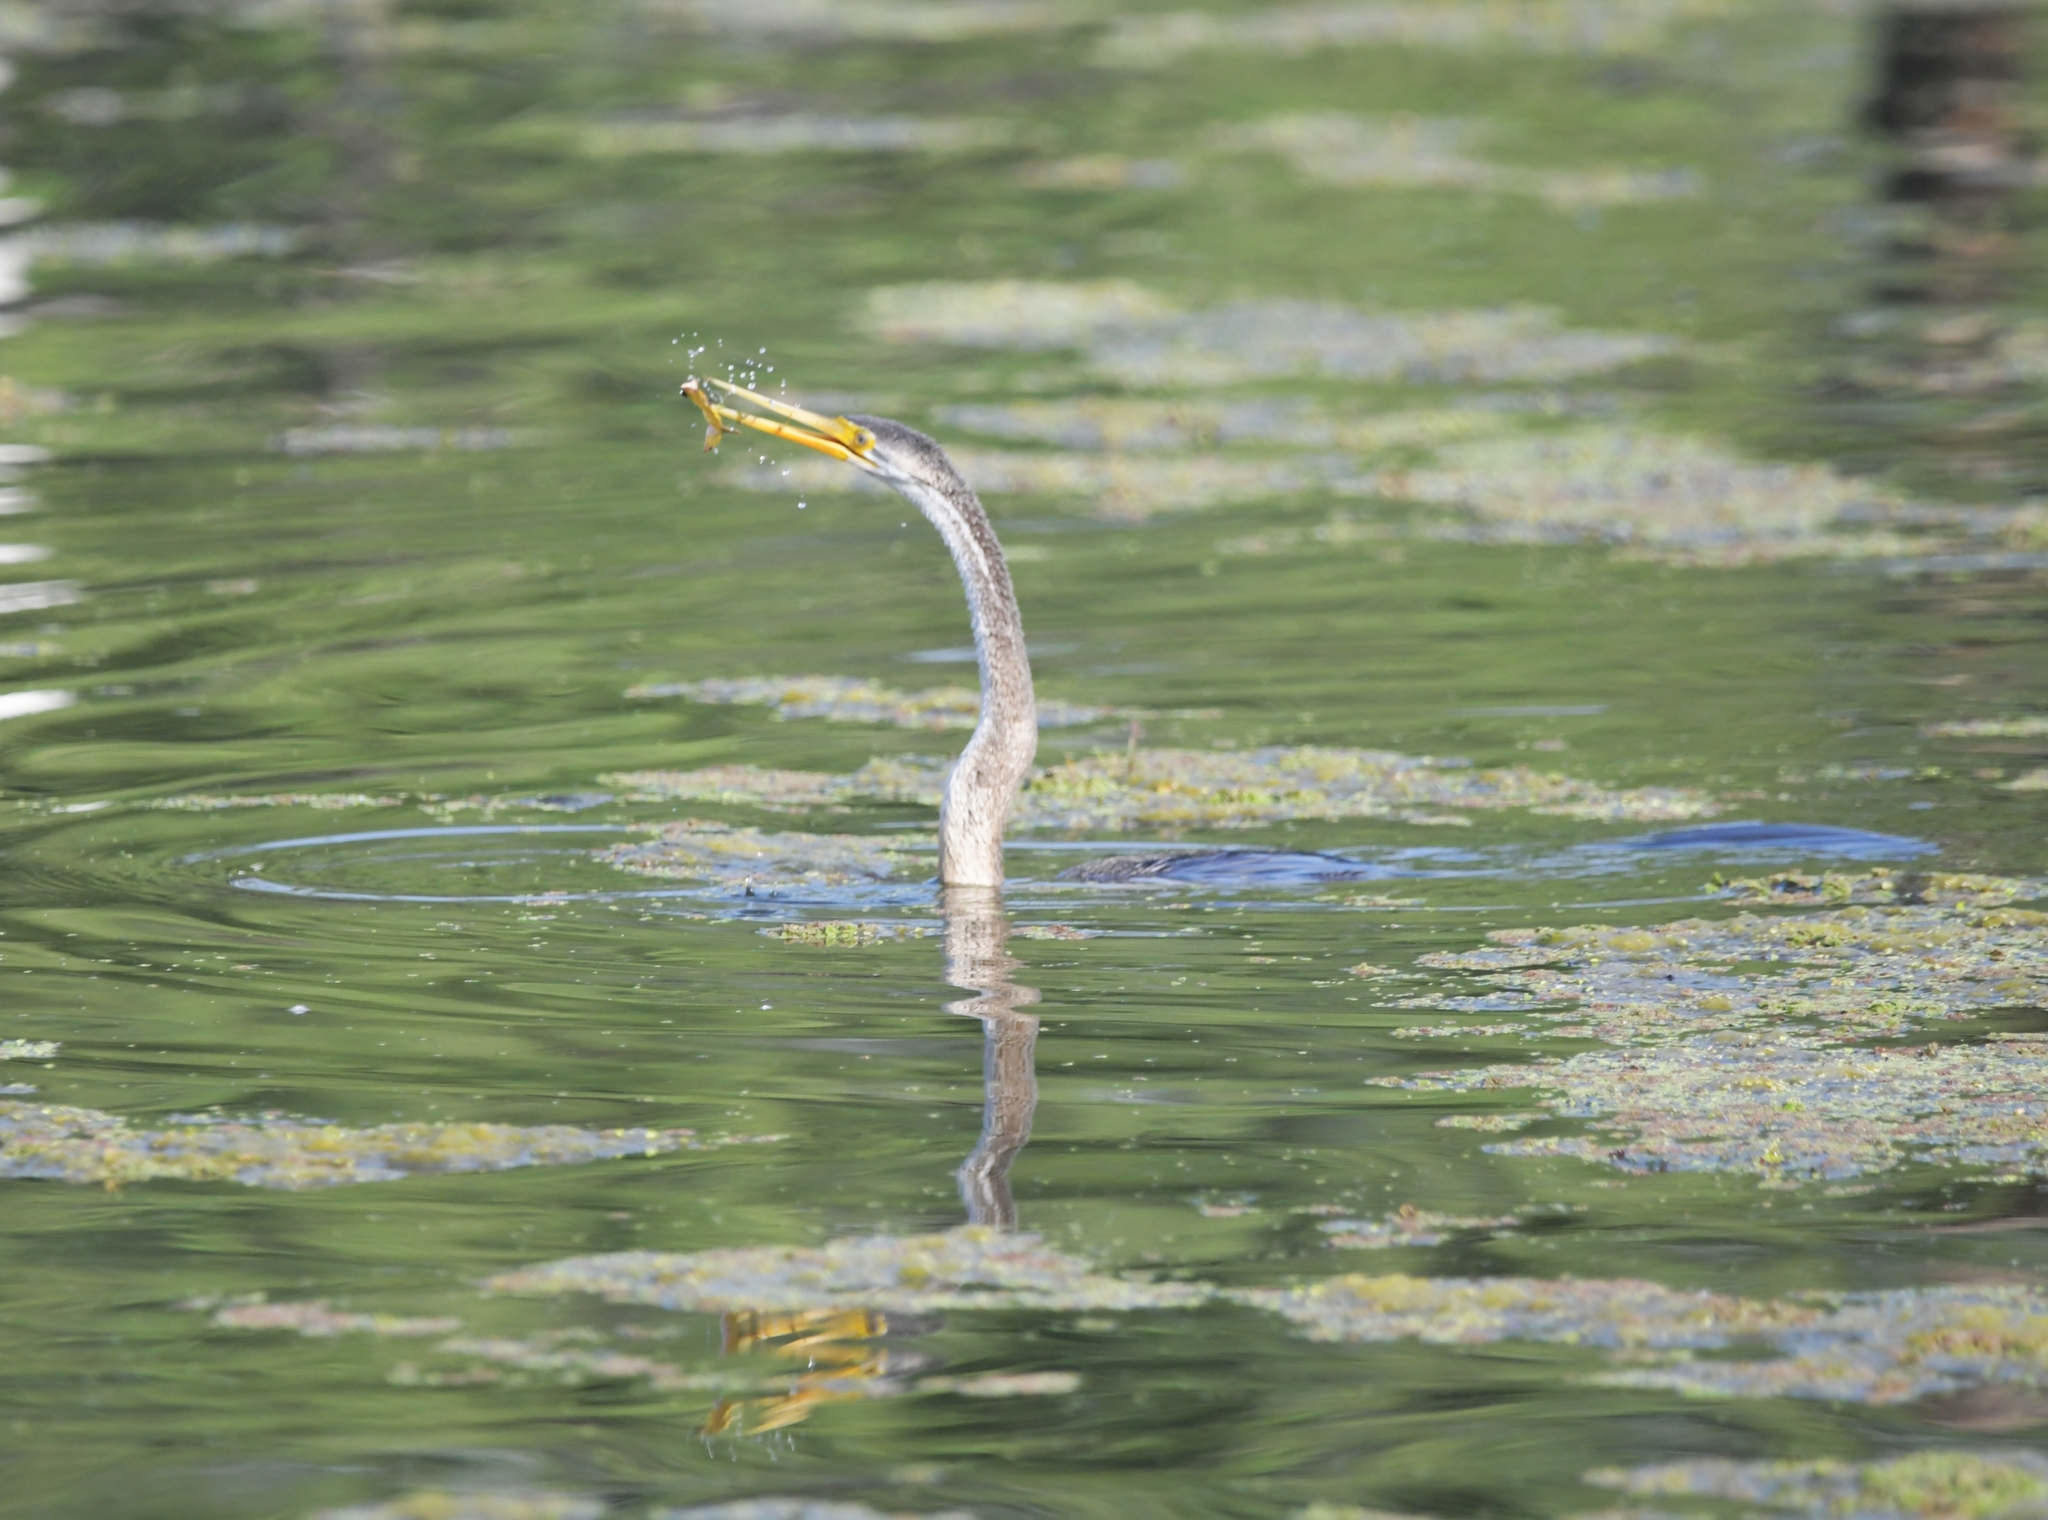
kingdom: Animalia
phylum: Chordata
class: Aves
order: Suliformes
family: Anhingidae
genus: Anhinga
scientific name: Anhinga melanogaster
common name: Oriental darter
